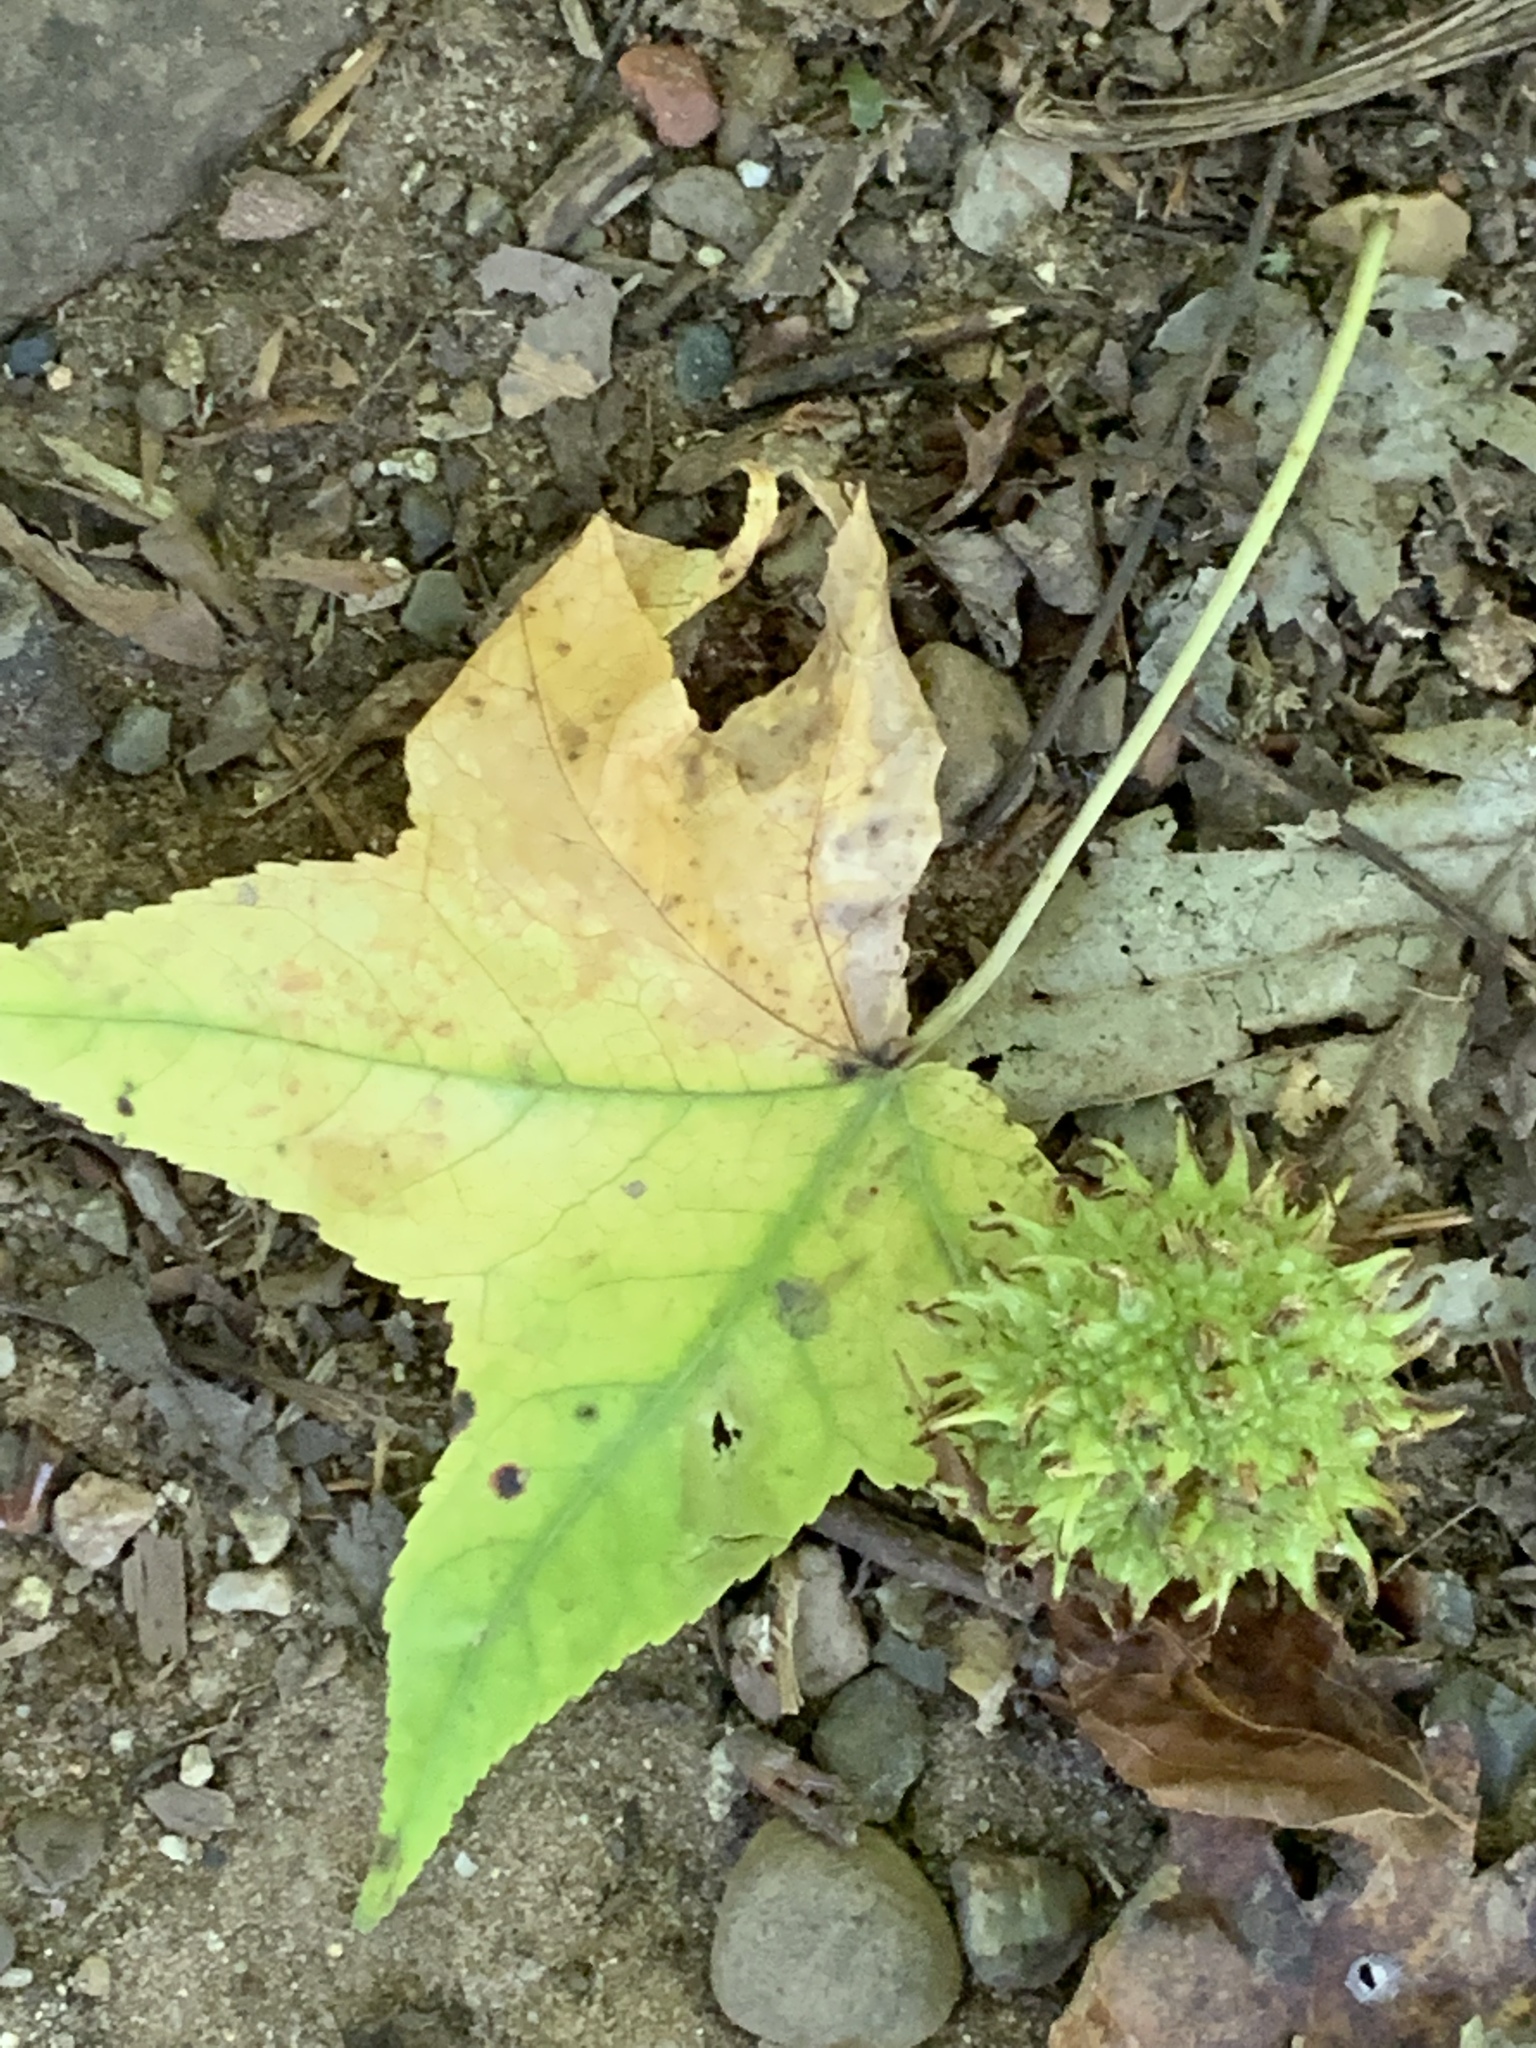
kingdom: Plantae
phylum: Tracheophyta
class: Magnoliopsida
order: Saxifragales
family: Altingiaceae
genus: Liquidambar
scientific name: Liquidambar styraciflua
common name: Sweet gum
